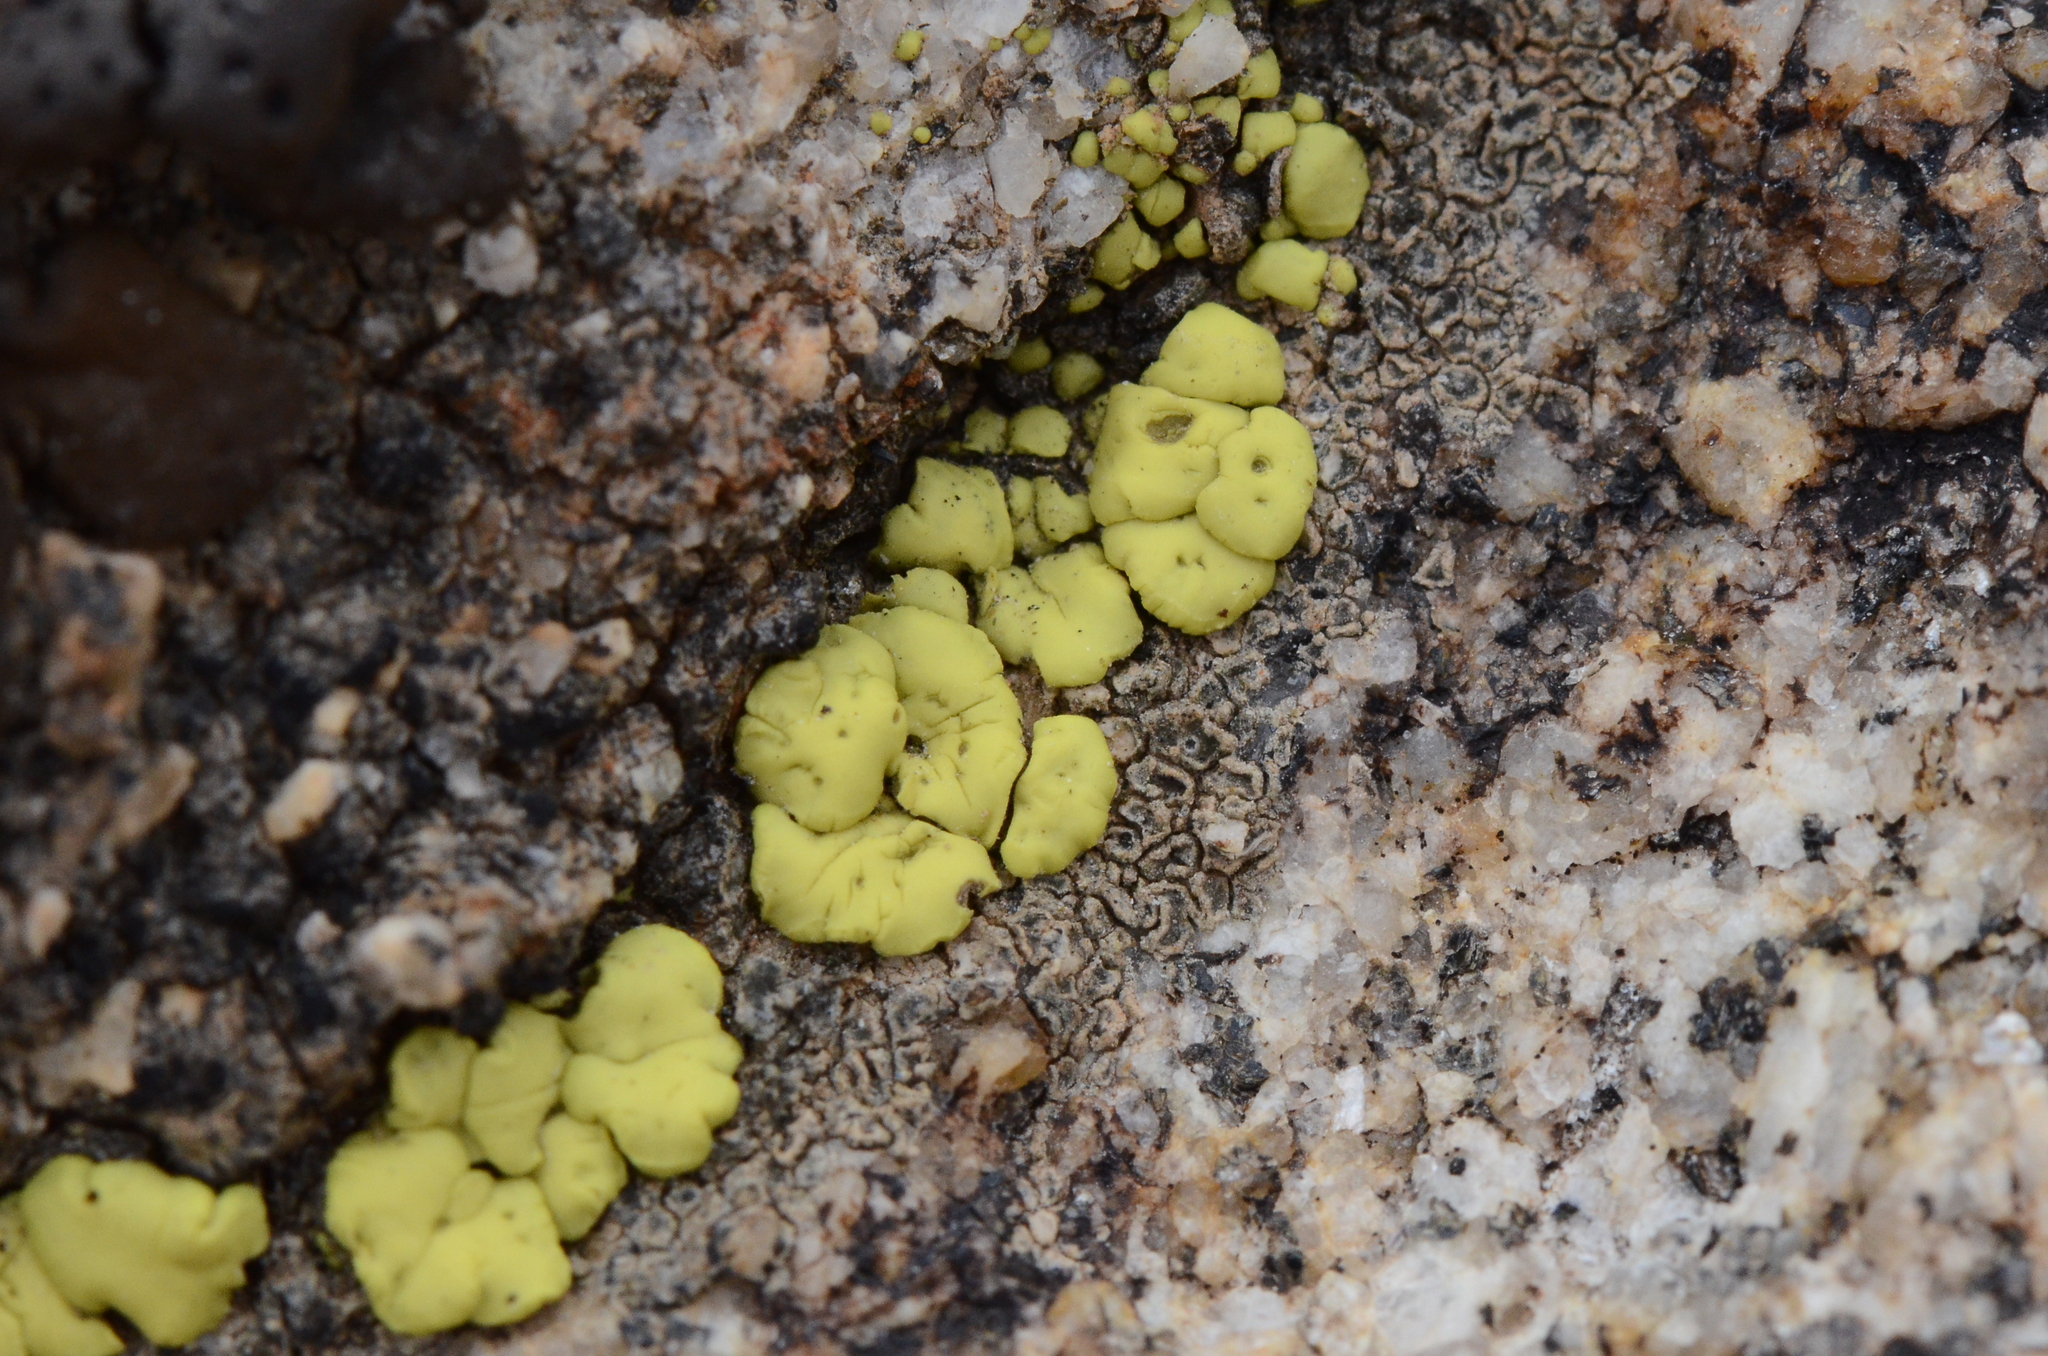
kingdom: Fungi
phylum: Ascomycota
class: Lecanoromycetes
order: Acarosporales
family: Acarosporaceae
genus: Acarospora
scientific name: Acarospora socialis
